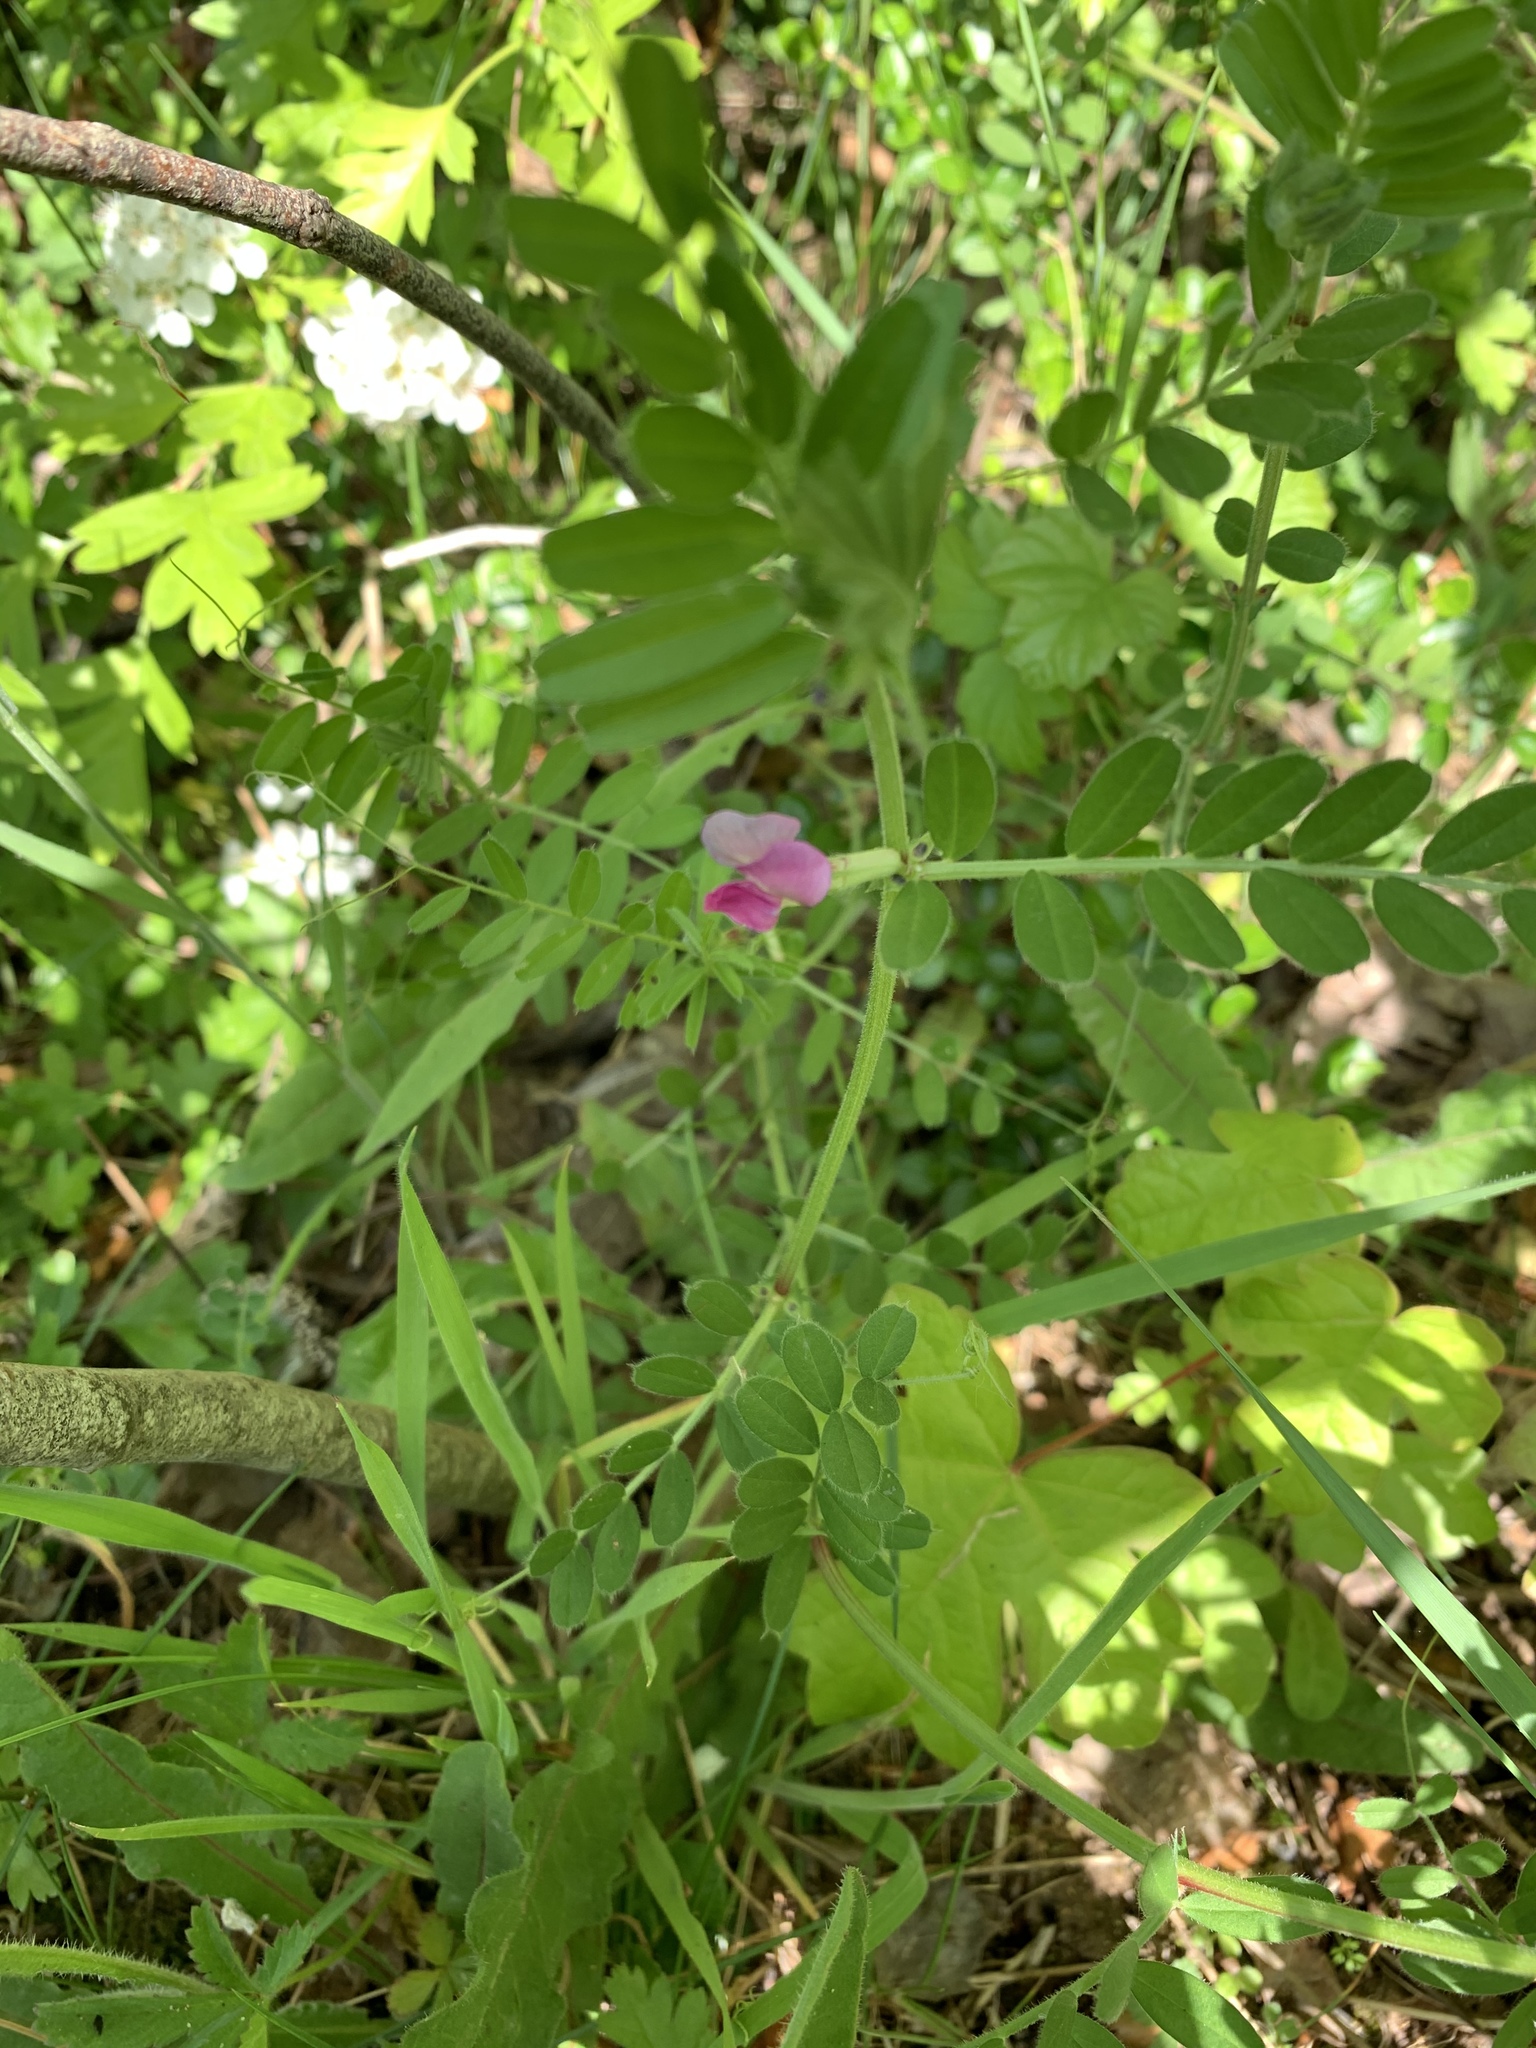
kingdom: Plantae
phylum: Tracheophyta
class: Magnoliopsida
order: Fabales
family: Fabaceae
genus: Vicia
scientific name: Vicia sativa
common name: Garden vetch
